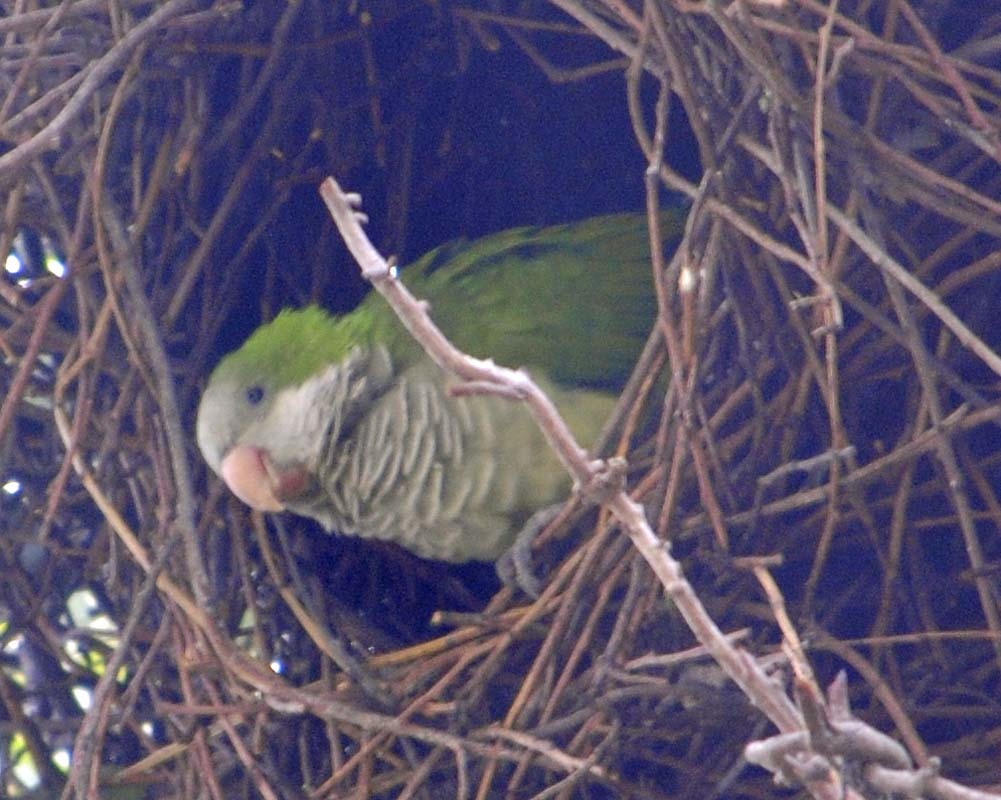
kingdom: Animalia
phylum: Chordata
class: Aves
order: Psittaciformes
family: Psittacidae
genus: Myiopsitta
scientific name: Myiopsitta monachus
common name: Monk parakeet
